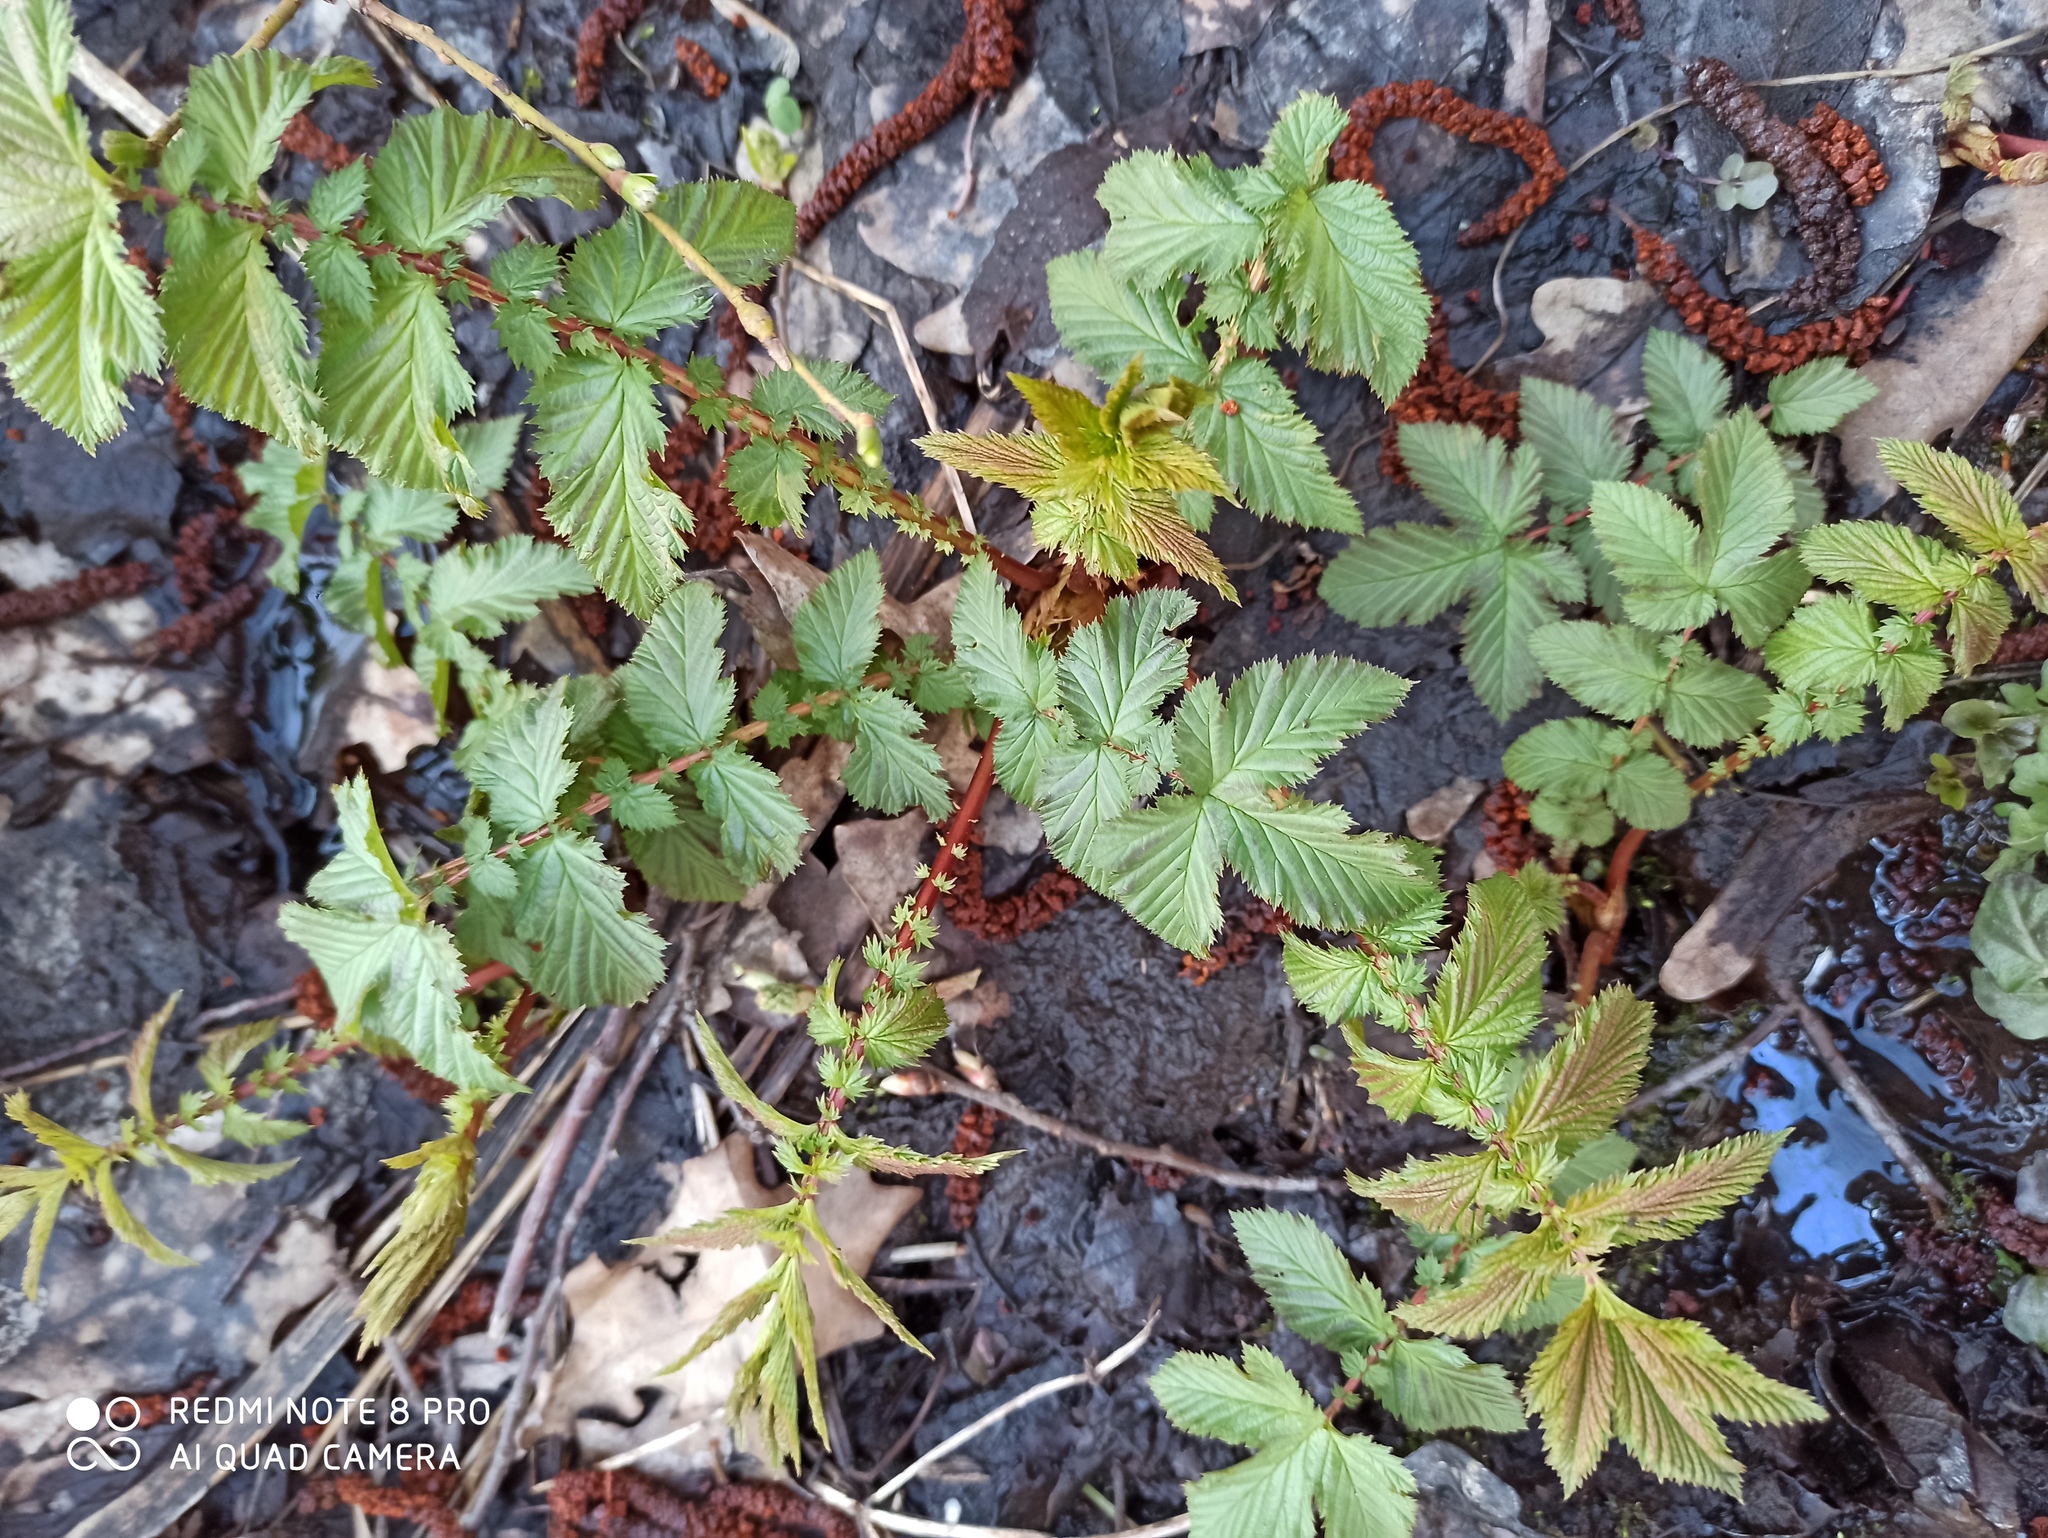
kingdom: Plantae
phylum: Tracheophyta
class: Magnoliopsida
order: Rosales
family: Rosaceae
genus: Filipendula
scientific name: Filipendula ulmaria
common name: Meadowsweet
